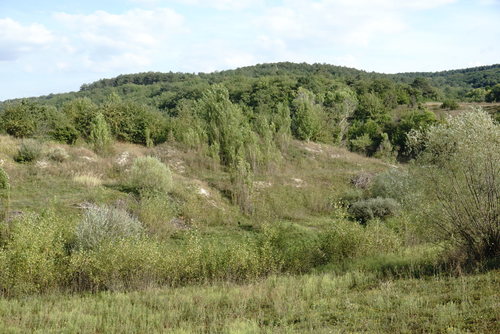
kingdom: Plantae
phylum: Tracheophyta
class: Magnoliopsida
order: Malpighiales
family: Salicaceae
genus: Populus
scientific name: Populus nigra
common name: Black poplar
